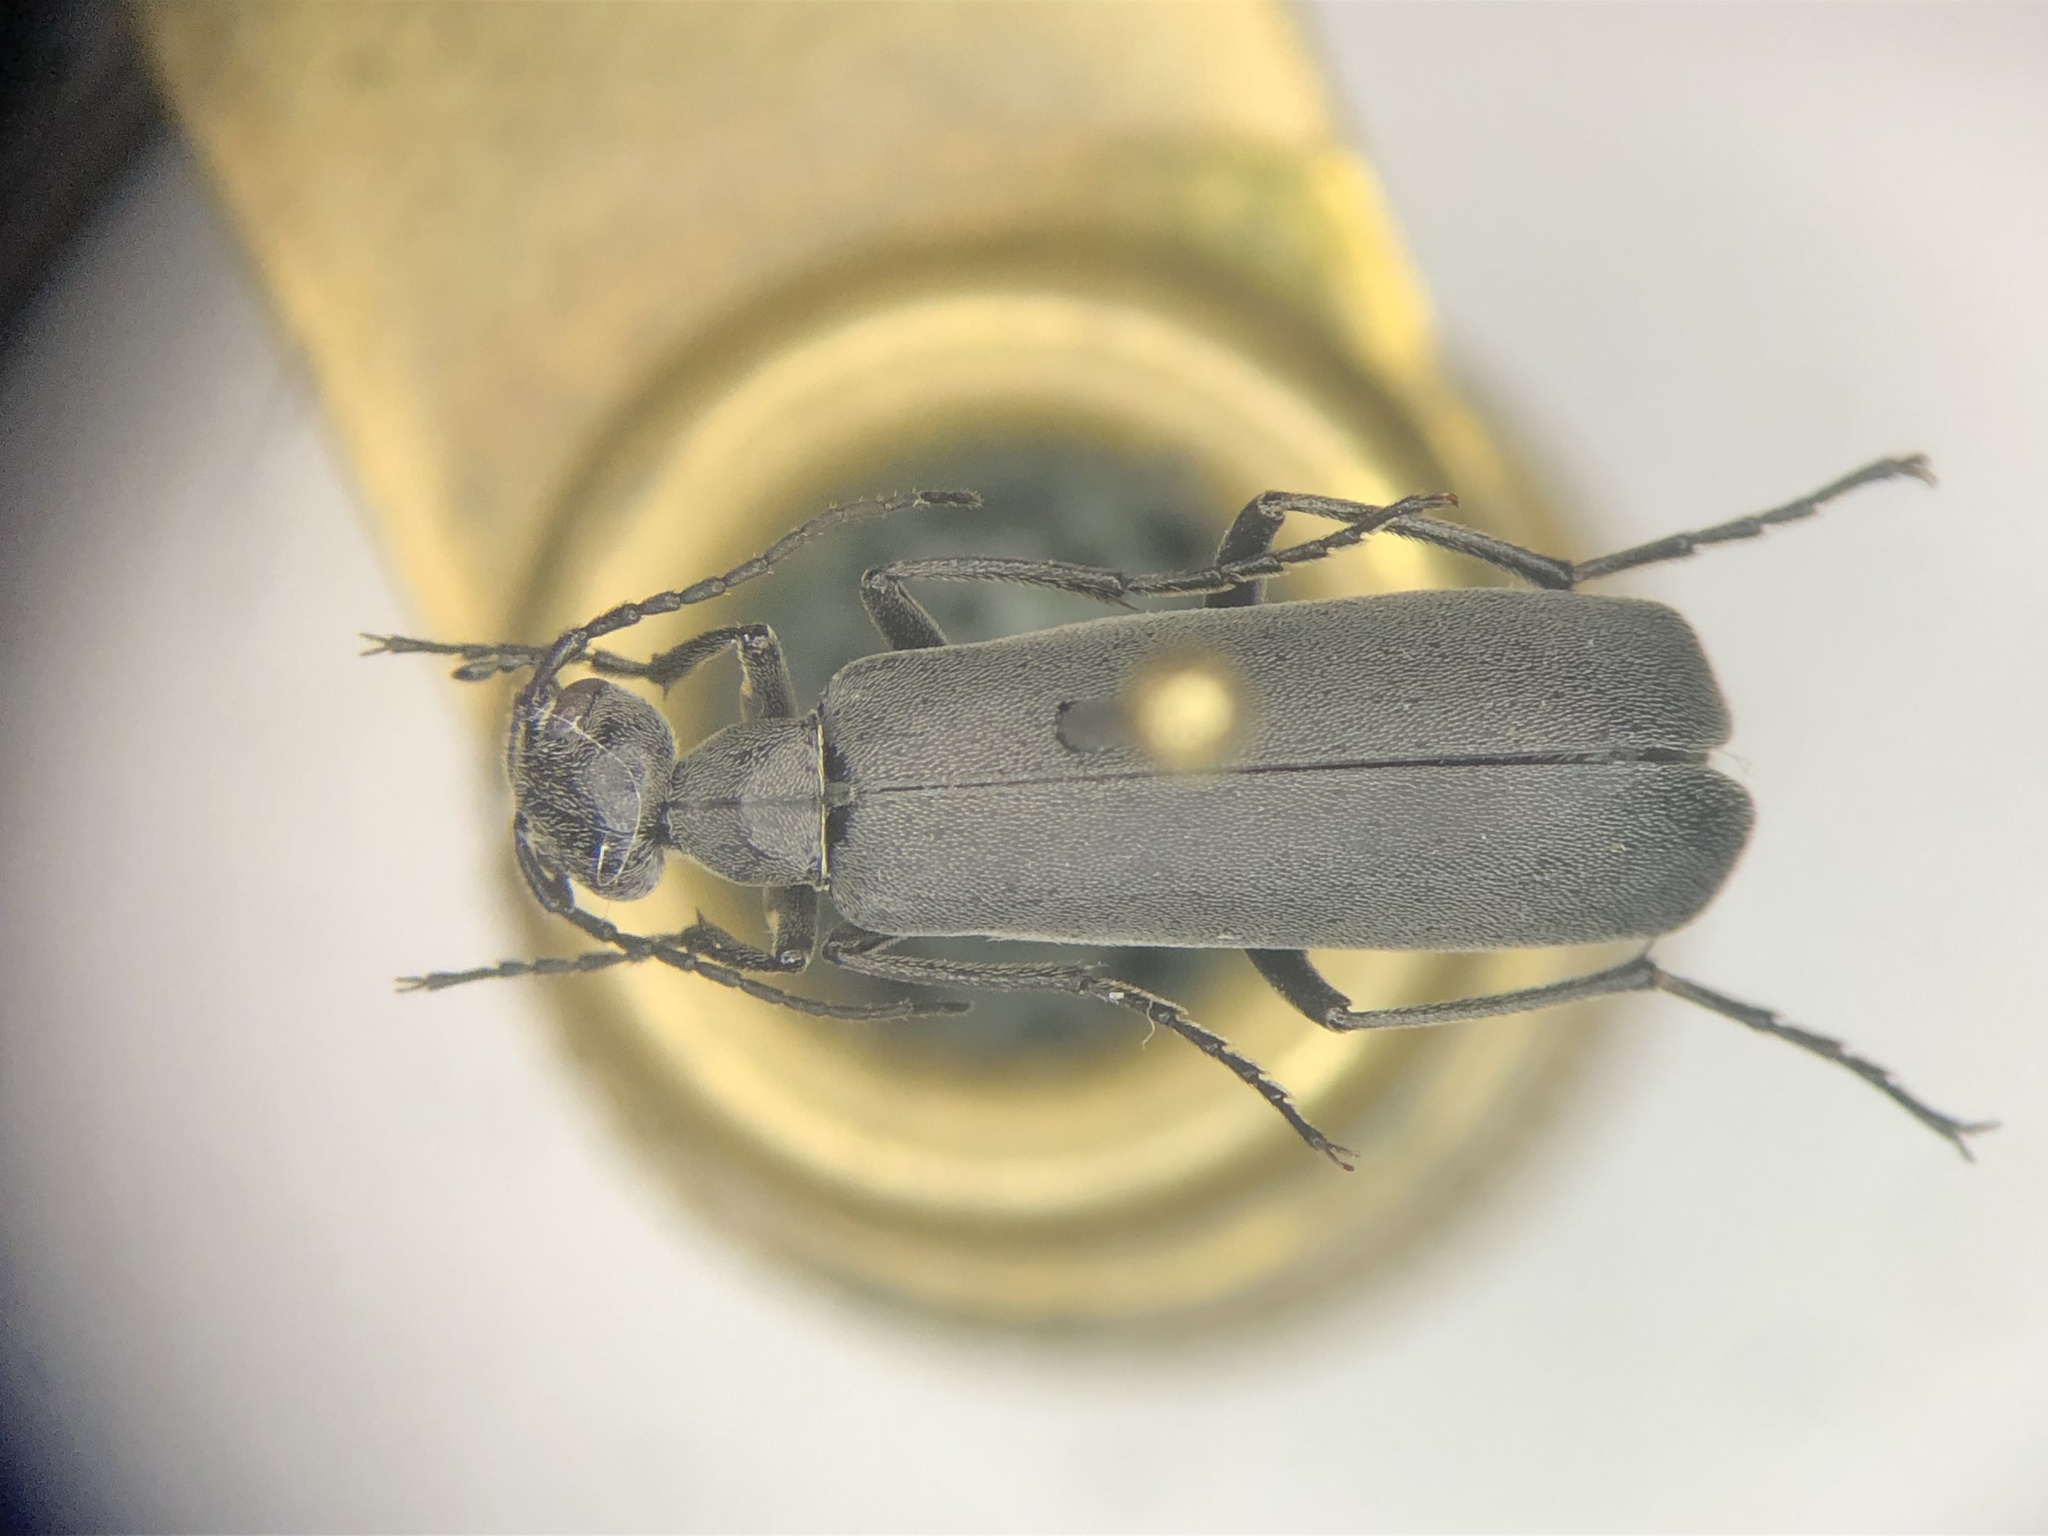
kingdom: Animalia
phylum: Arthropoda
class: Insecta
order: Coleoptera
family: Meloidae
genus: Epicauta
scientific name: Epicauta murina
